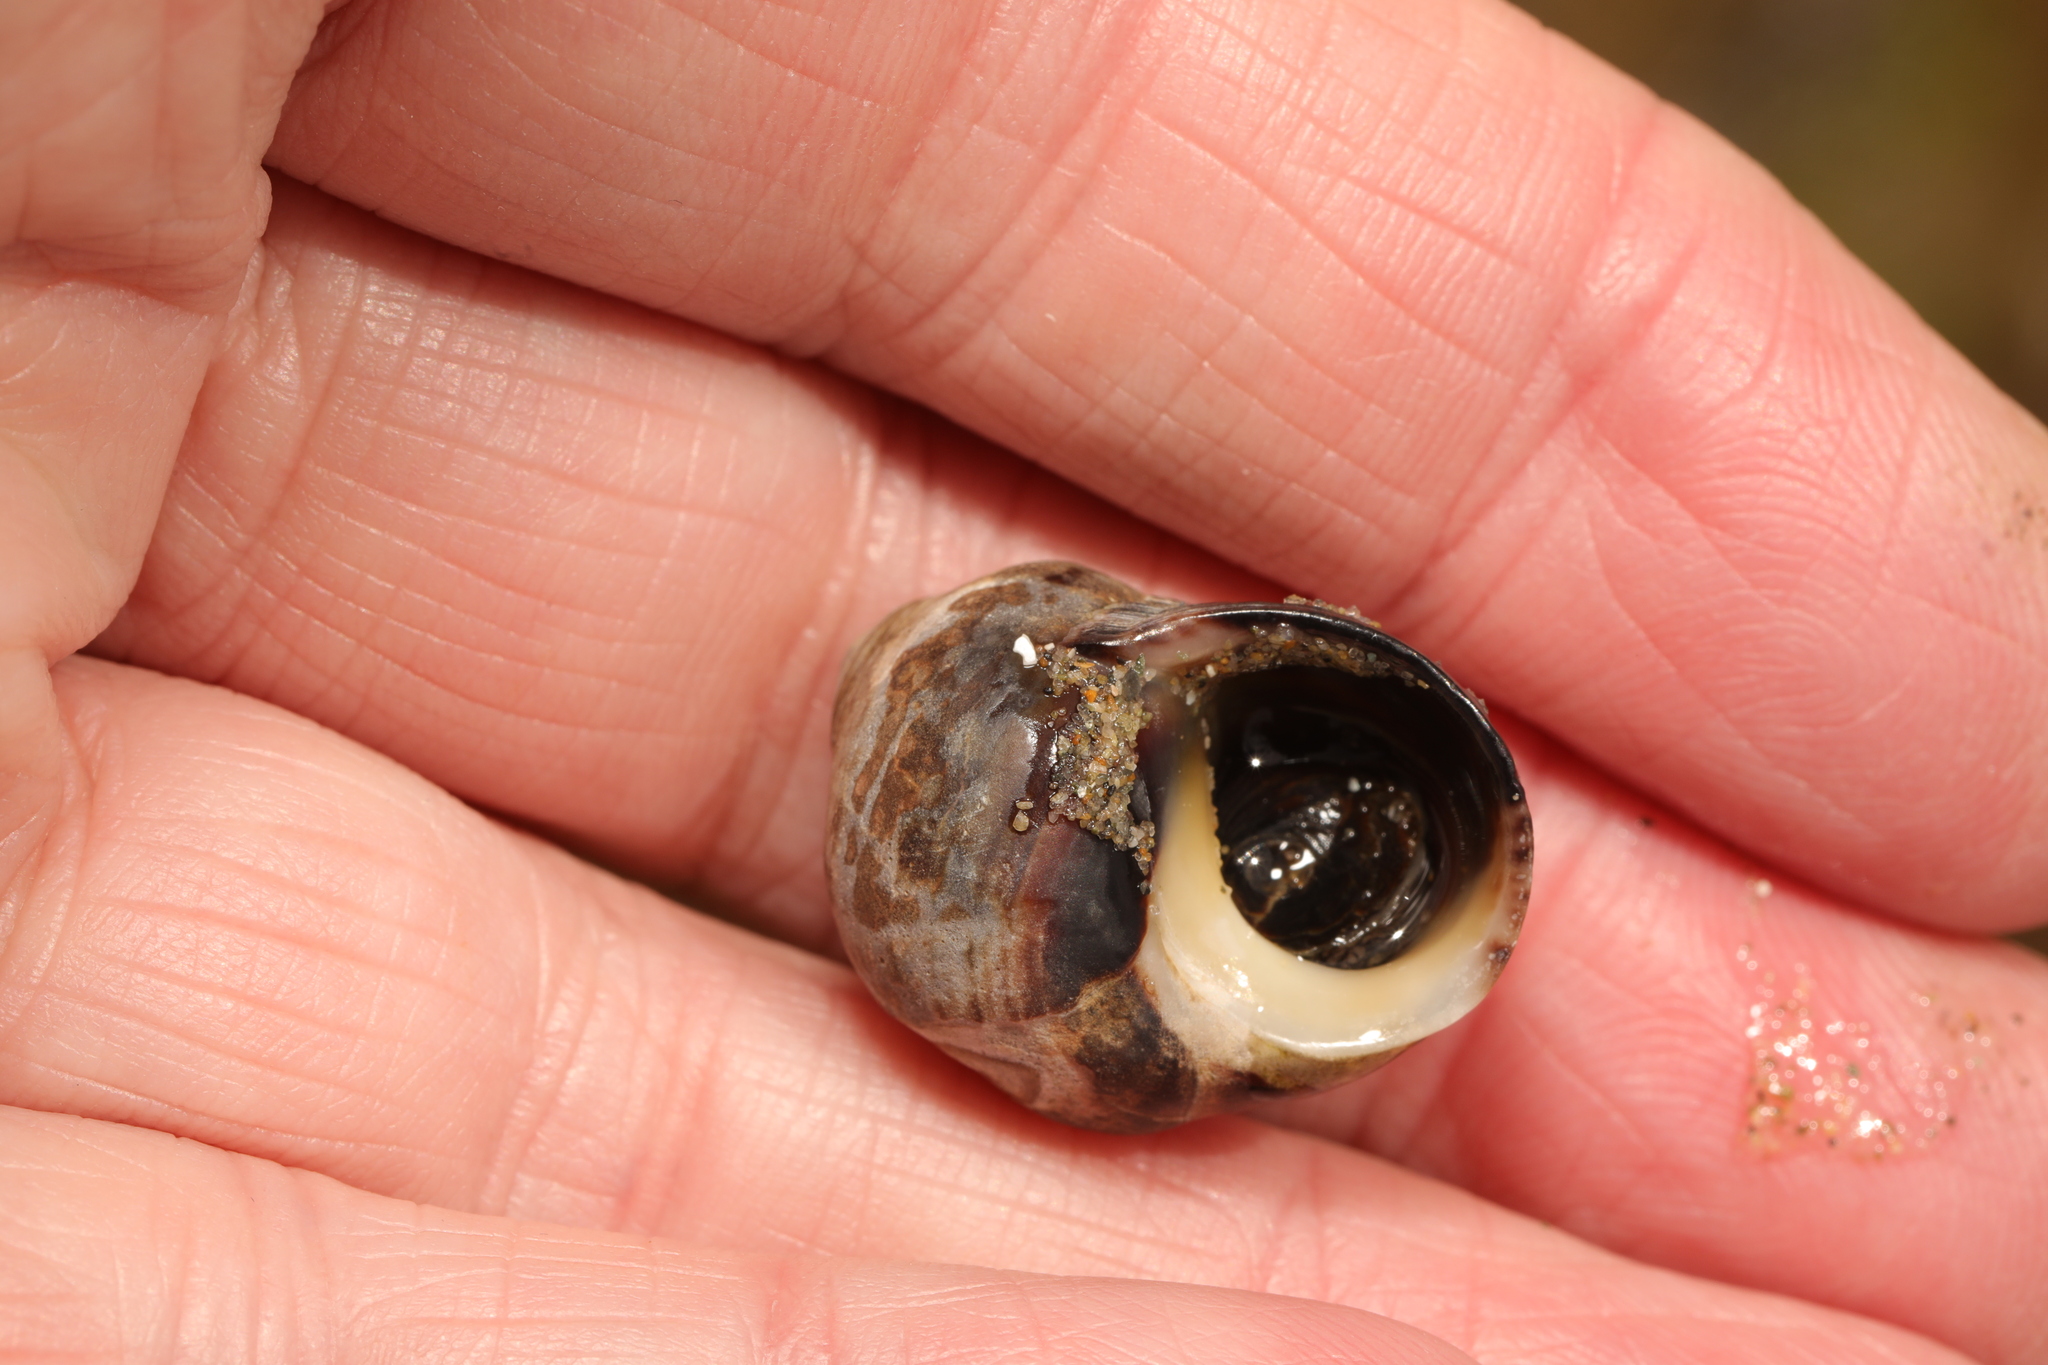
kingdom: Animalia
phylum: Mollusca
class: Gastropoda
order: Littorinimorpha
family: Littorinidae
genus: Littorina
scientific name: Littorina littorea
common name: Common periwinkle
